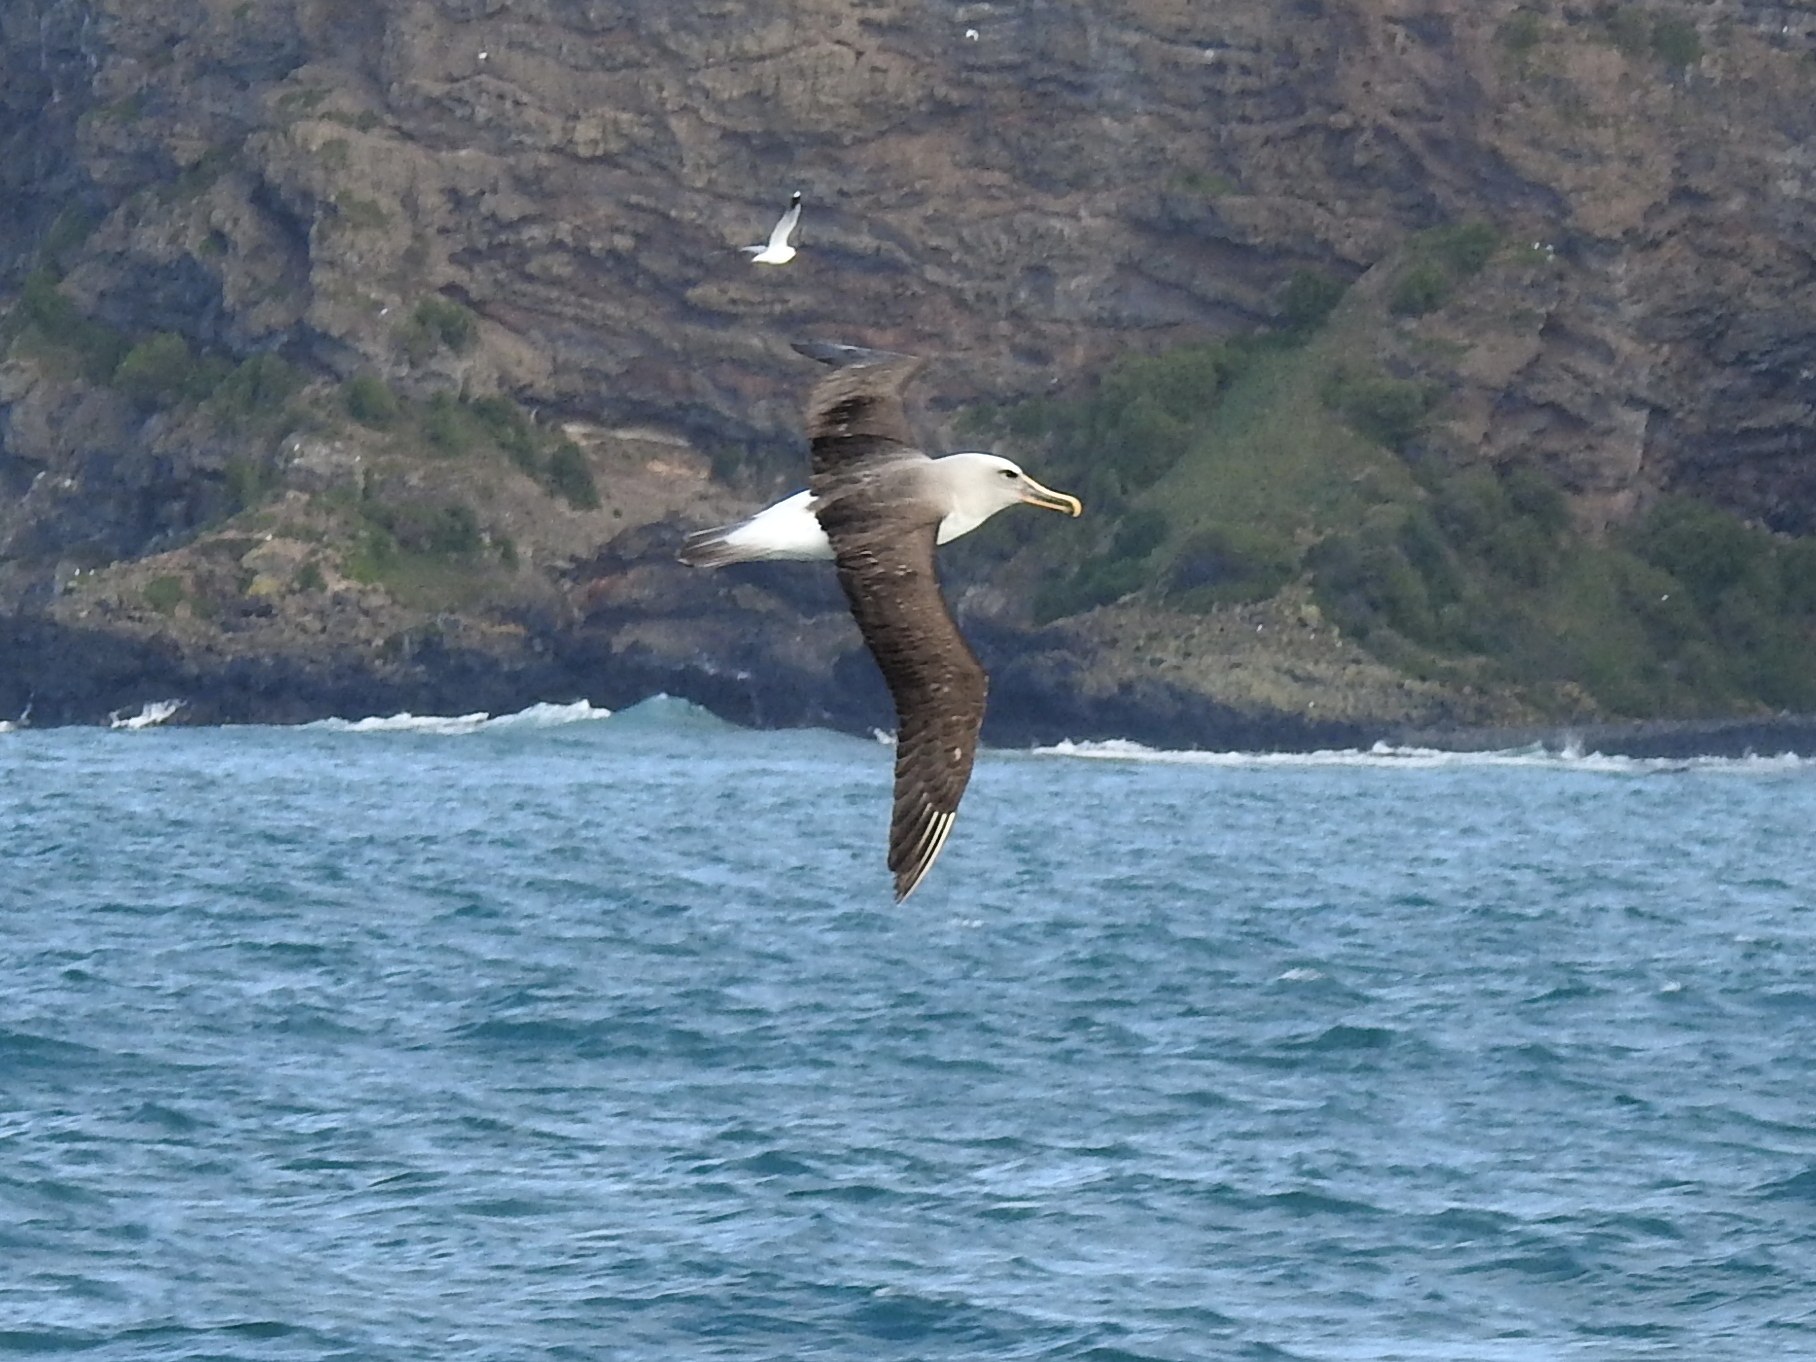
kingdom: Animalia
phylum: Chordata
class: Aves
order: Procellariiformes
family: Diomedeidae
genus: Thalassarche
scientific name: Thalassarche bulleri
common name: Buller's albatross
